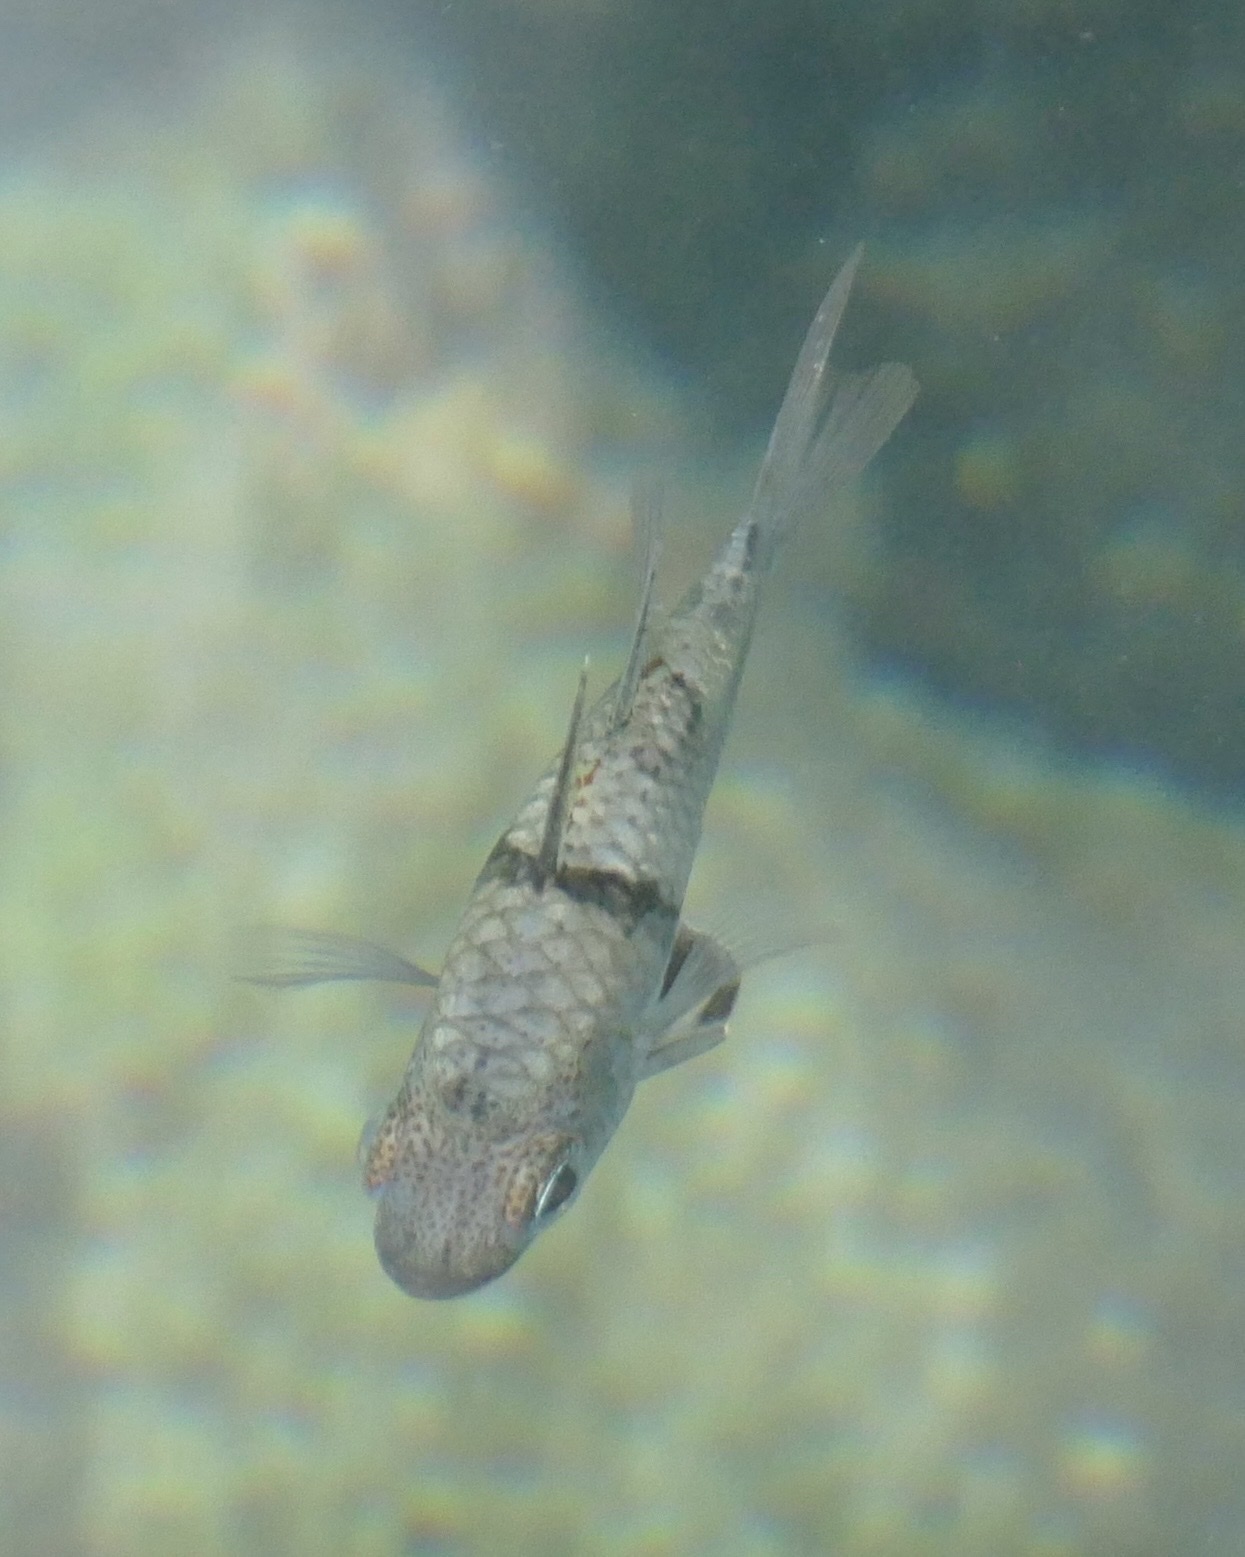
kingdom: Animalia
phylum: Chordata
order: Perciformes
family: Apogonidae
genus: Sphaeramia
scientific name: Sphaeramia orbicularis
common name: Polka-dot cardinalfish
